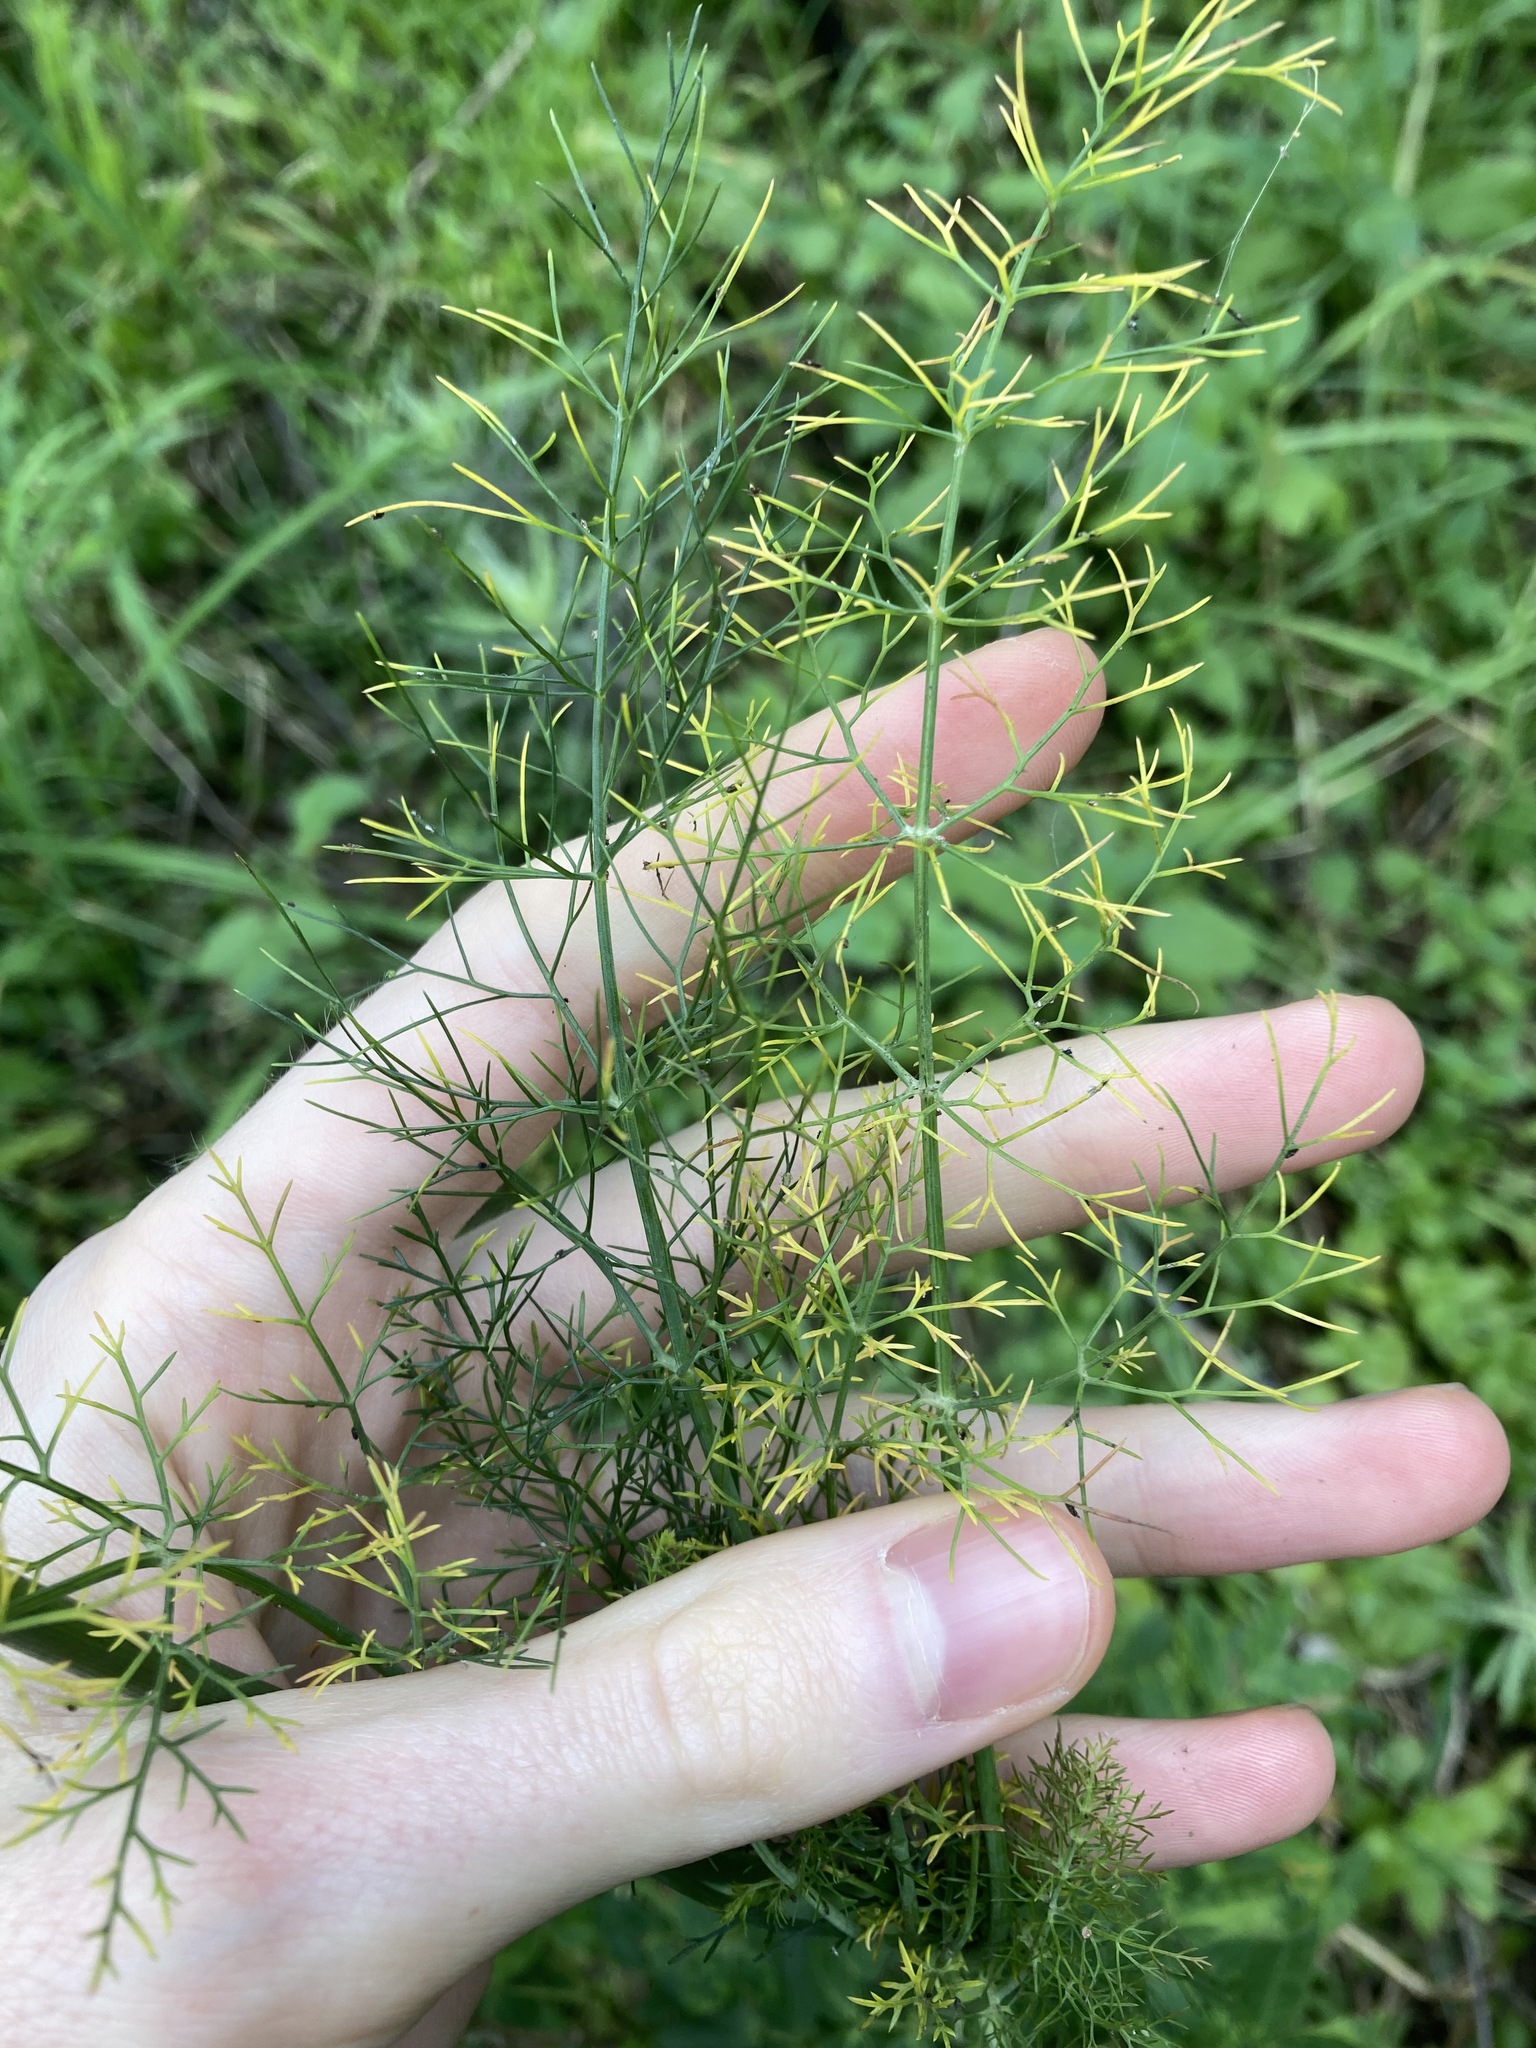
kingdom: Plantae
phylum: Tracheophyta
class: Magnoliopsida
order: Apiales
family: Apiaceae
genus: Foeniculum
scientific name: Foeniculum vulgare
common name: Fennel
